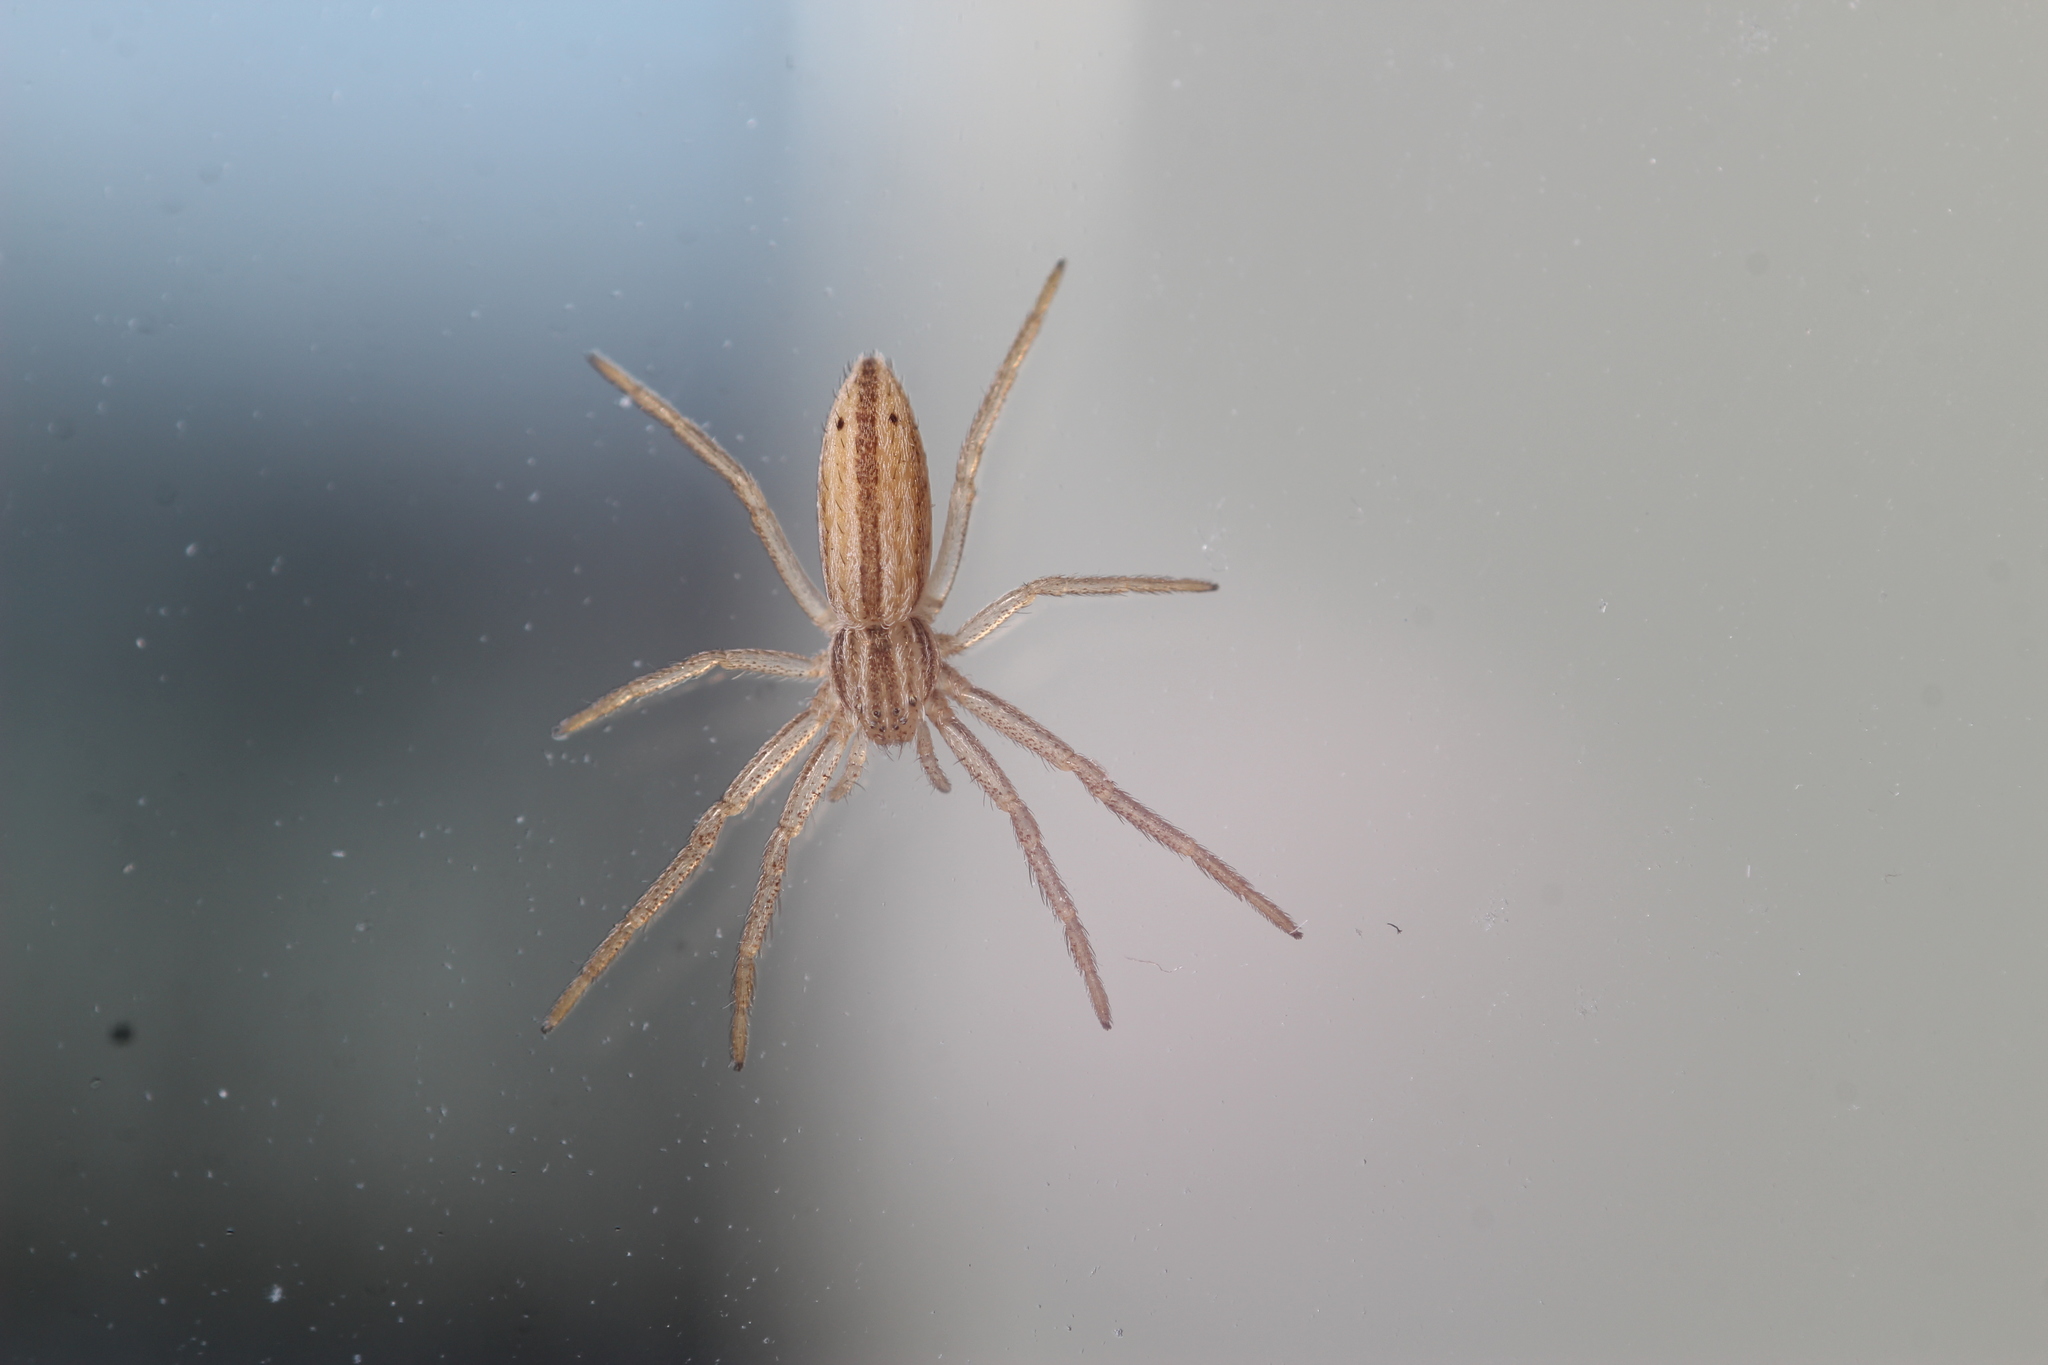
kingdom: Animalia
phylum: Arthropoda
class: Arachnida
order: Araneae
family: Philodromidae
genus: Tibellus
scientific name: Tibellus oblongus
